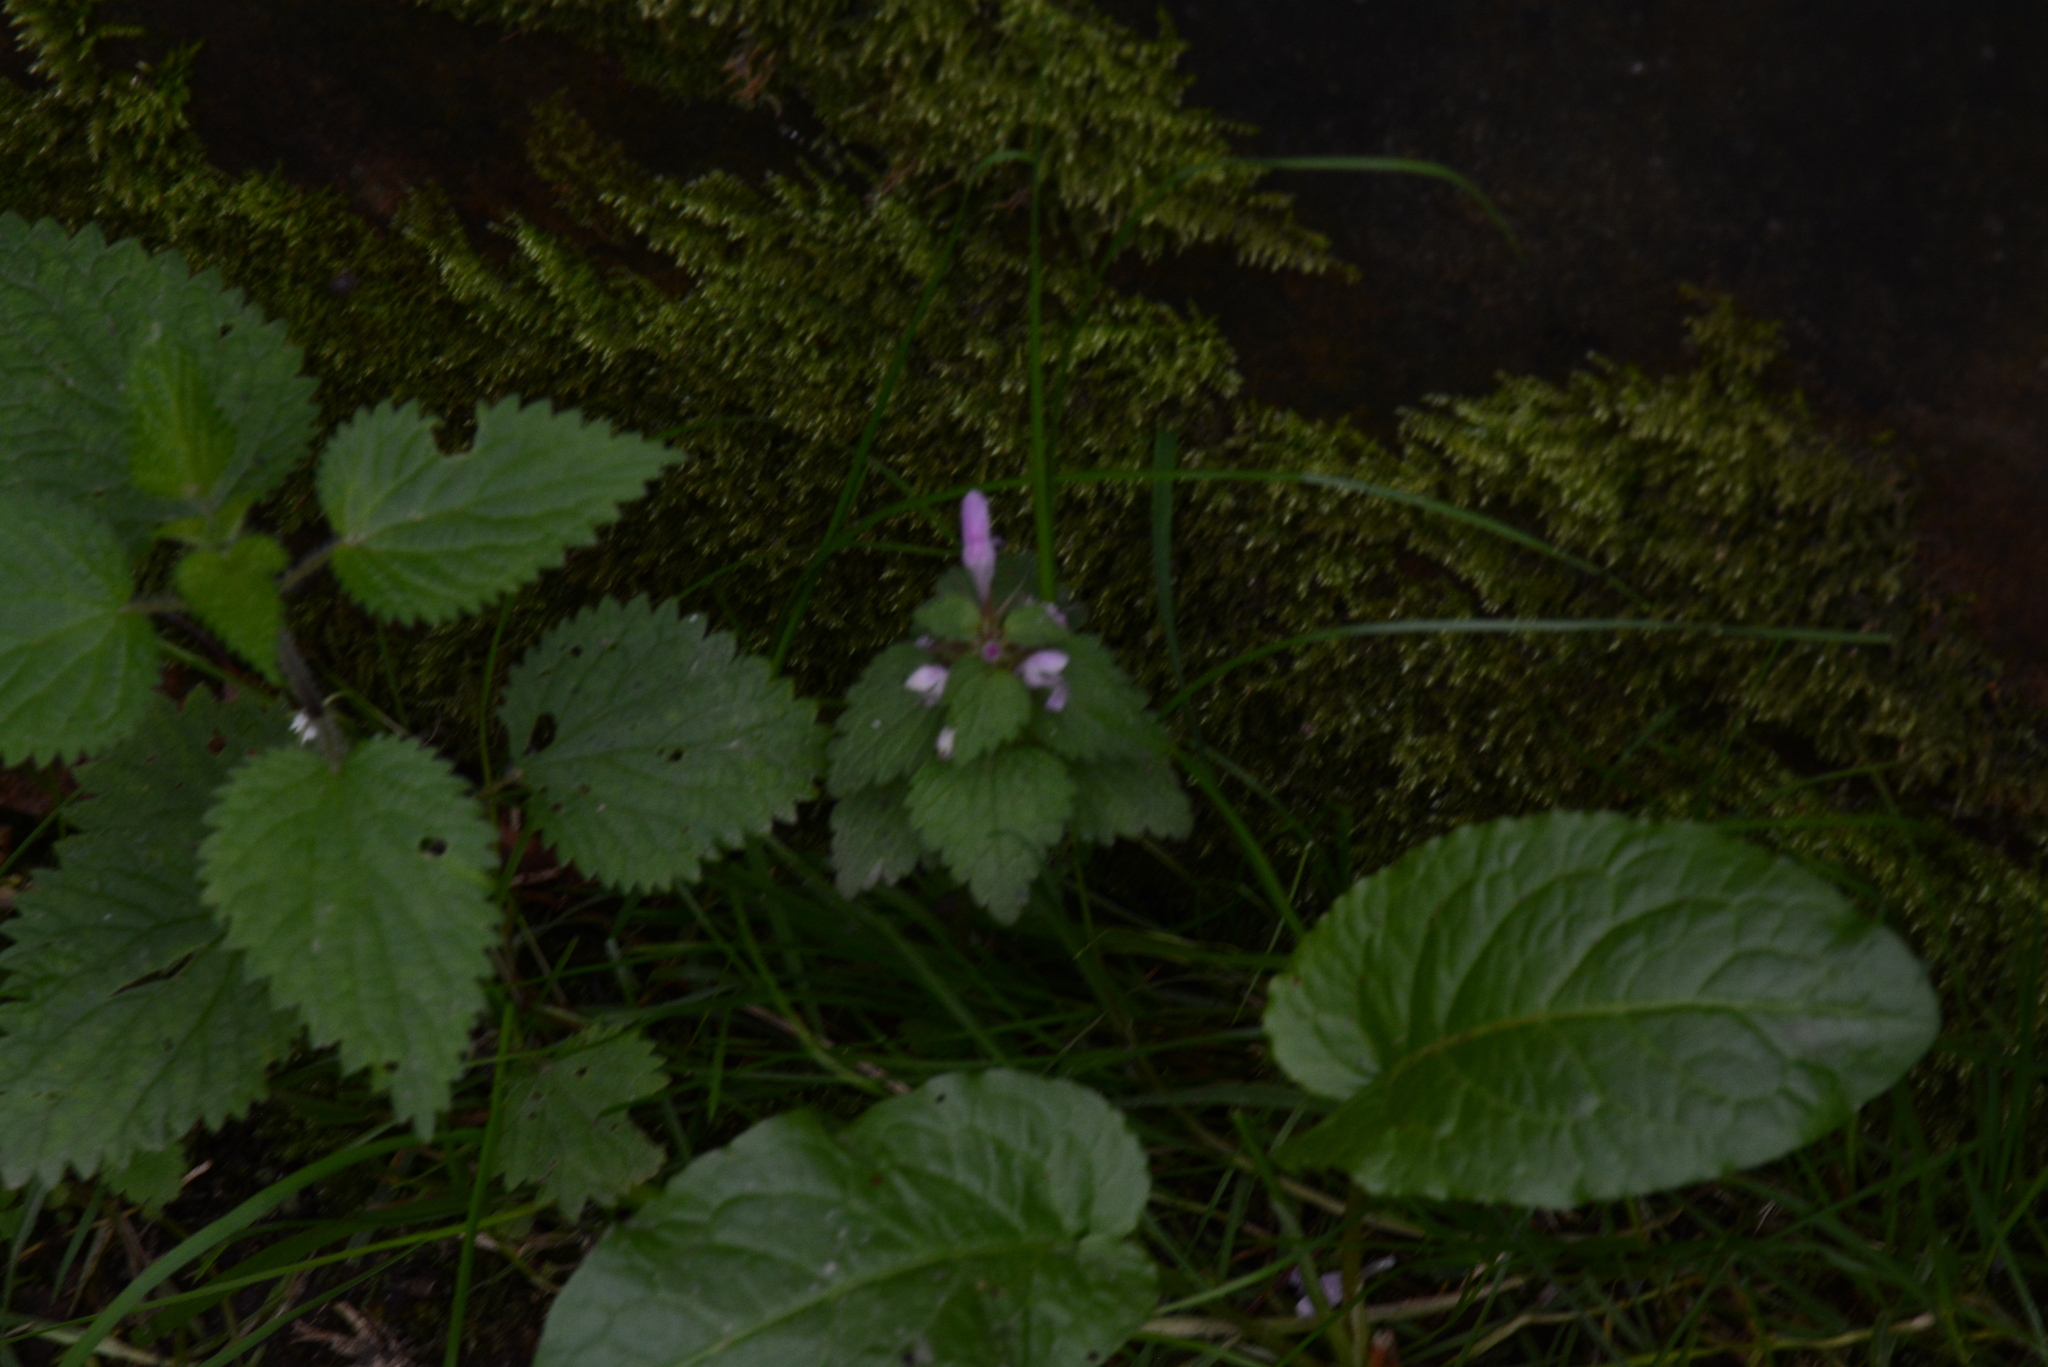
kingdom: Plantae
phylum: Tracheophyta
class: Magnoliopsida
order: Lamiales
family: Lamiaceae
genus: Lamium
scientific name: Lamium purpureum
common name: Red dead-nettle
